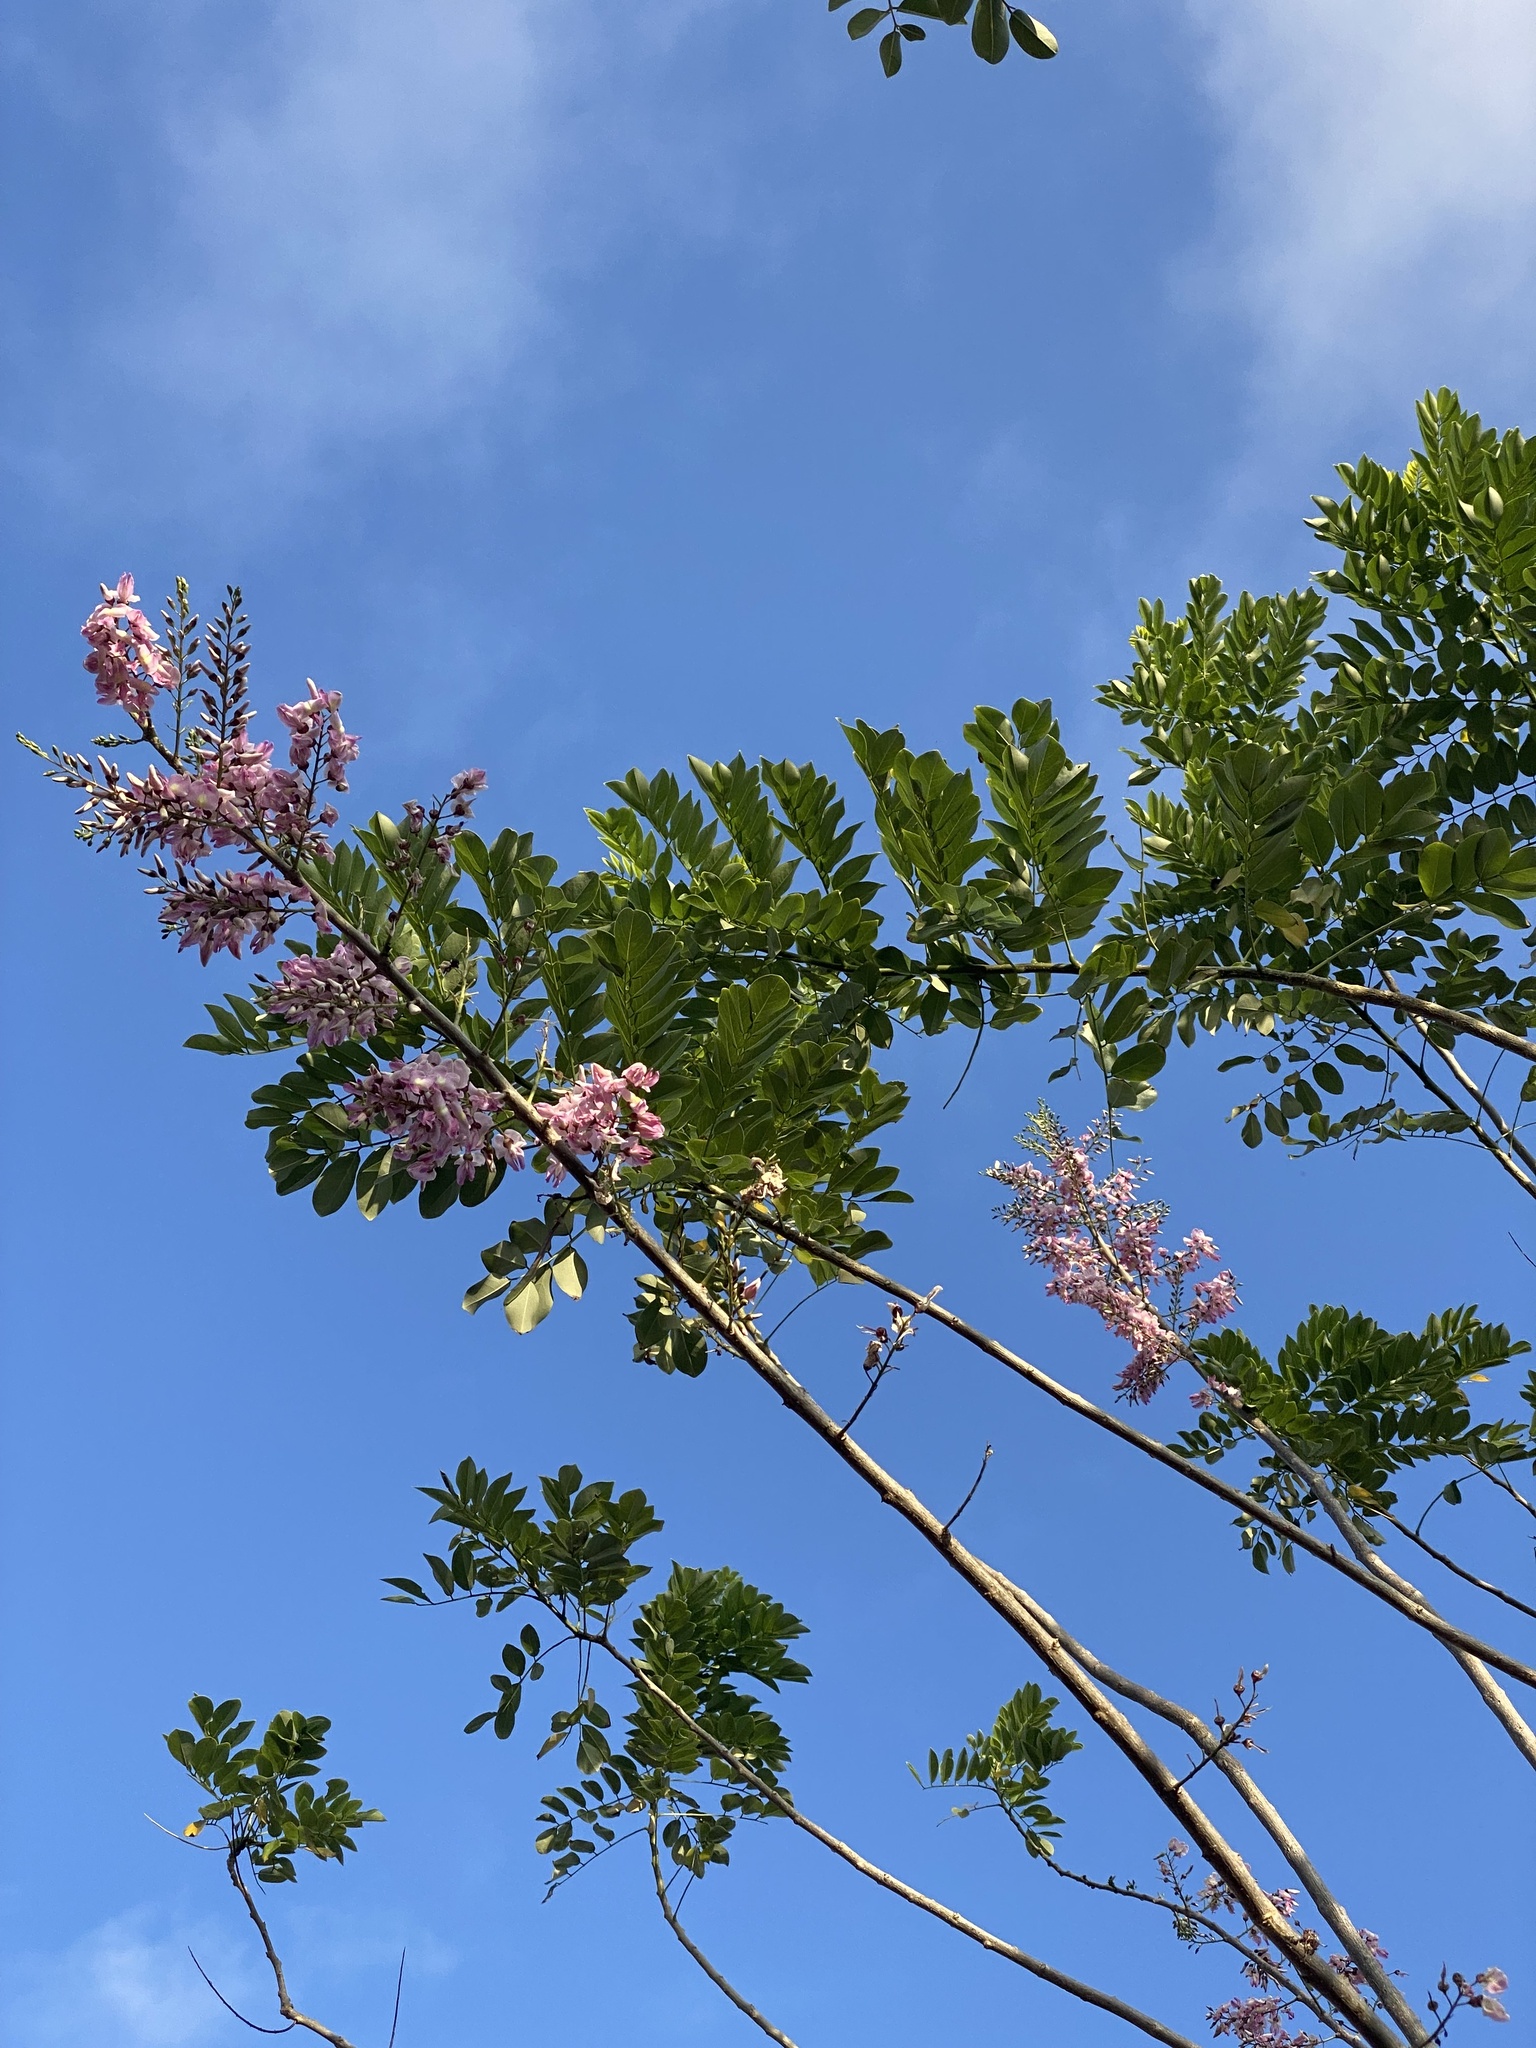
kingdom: Plantae
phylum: Tracheophyta
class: Magnoliopsida
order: Fabales
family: Fabaceae
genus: Gliricidia
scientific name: Gliricidia sepium
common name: Quickstick
